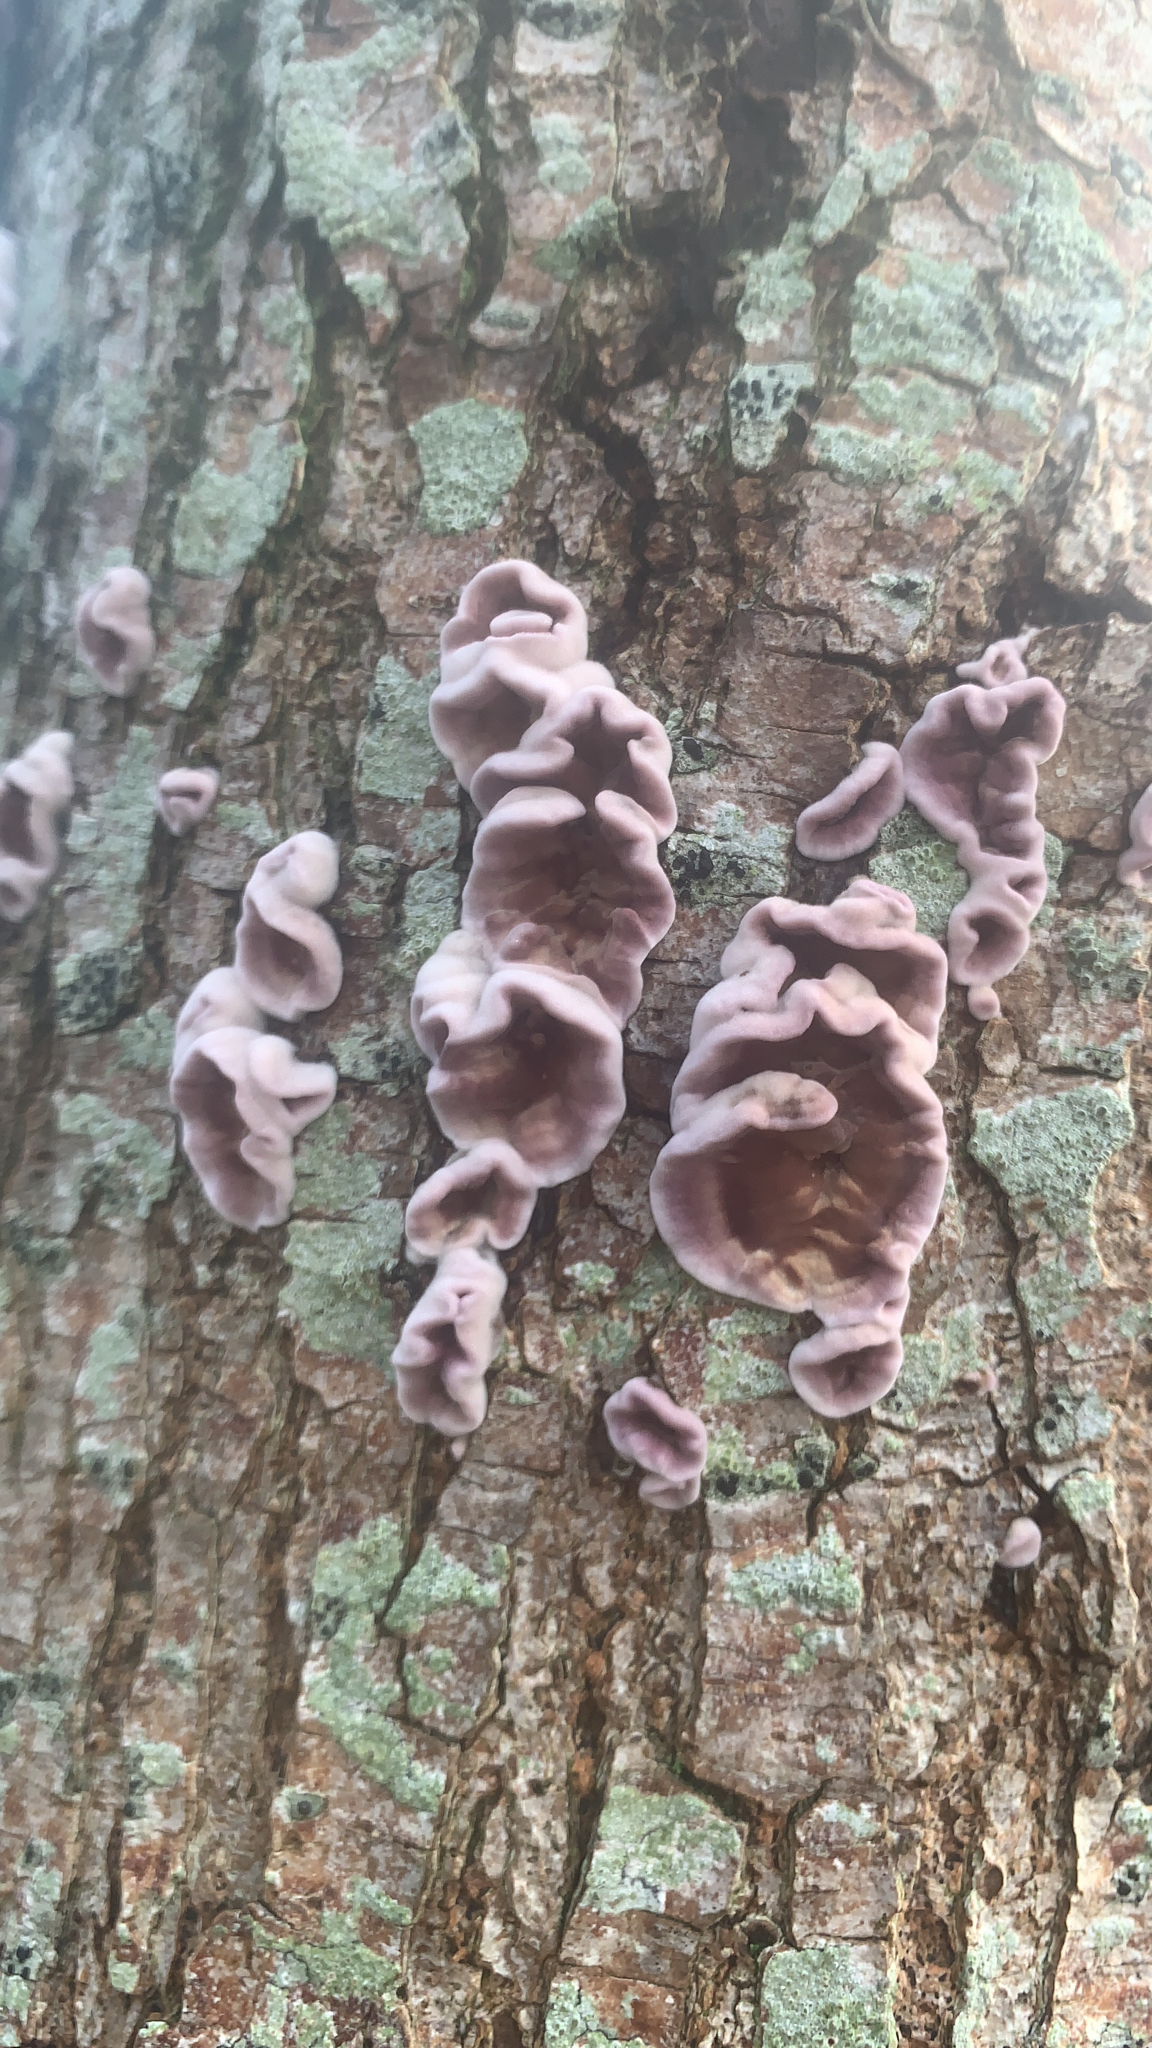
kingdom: Fungi
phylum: Basidiomycota
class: Agaricomycetes
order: Agaricales
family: Cyphellaceae
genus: Chondrostereum
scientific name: Chondrostereum purpureum
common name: Silver leaf disease
